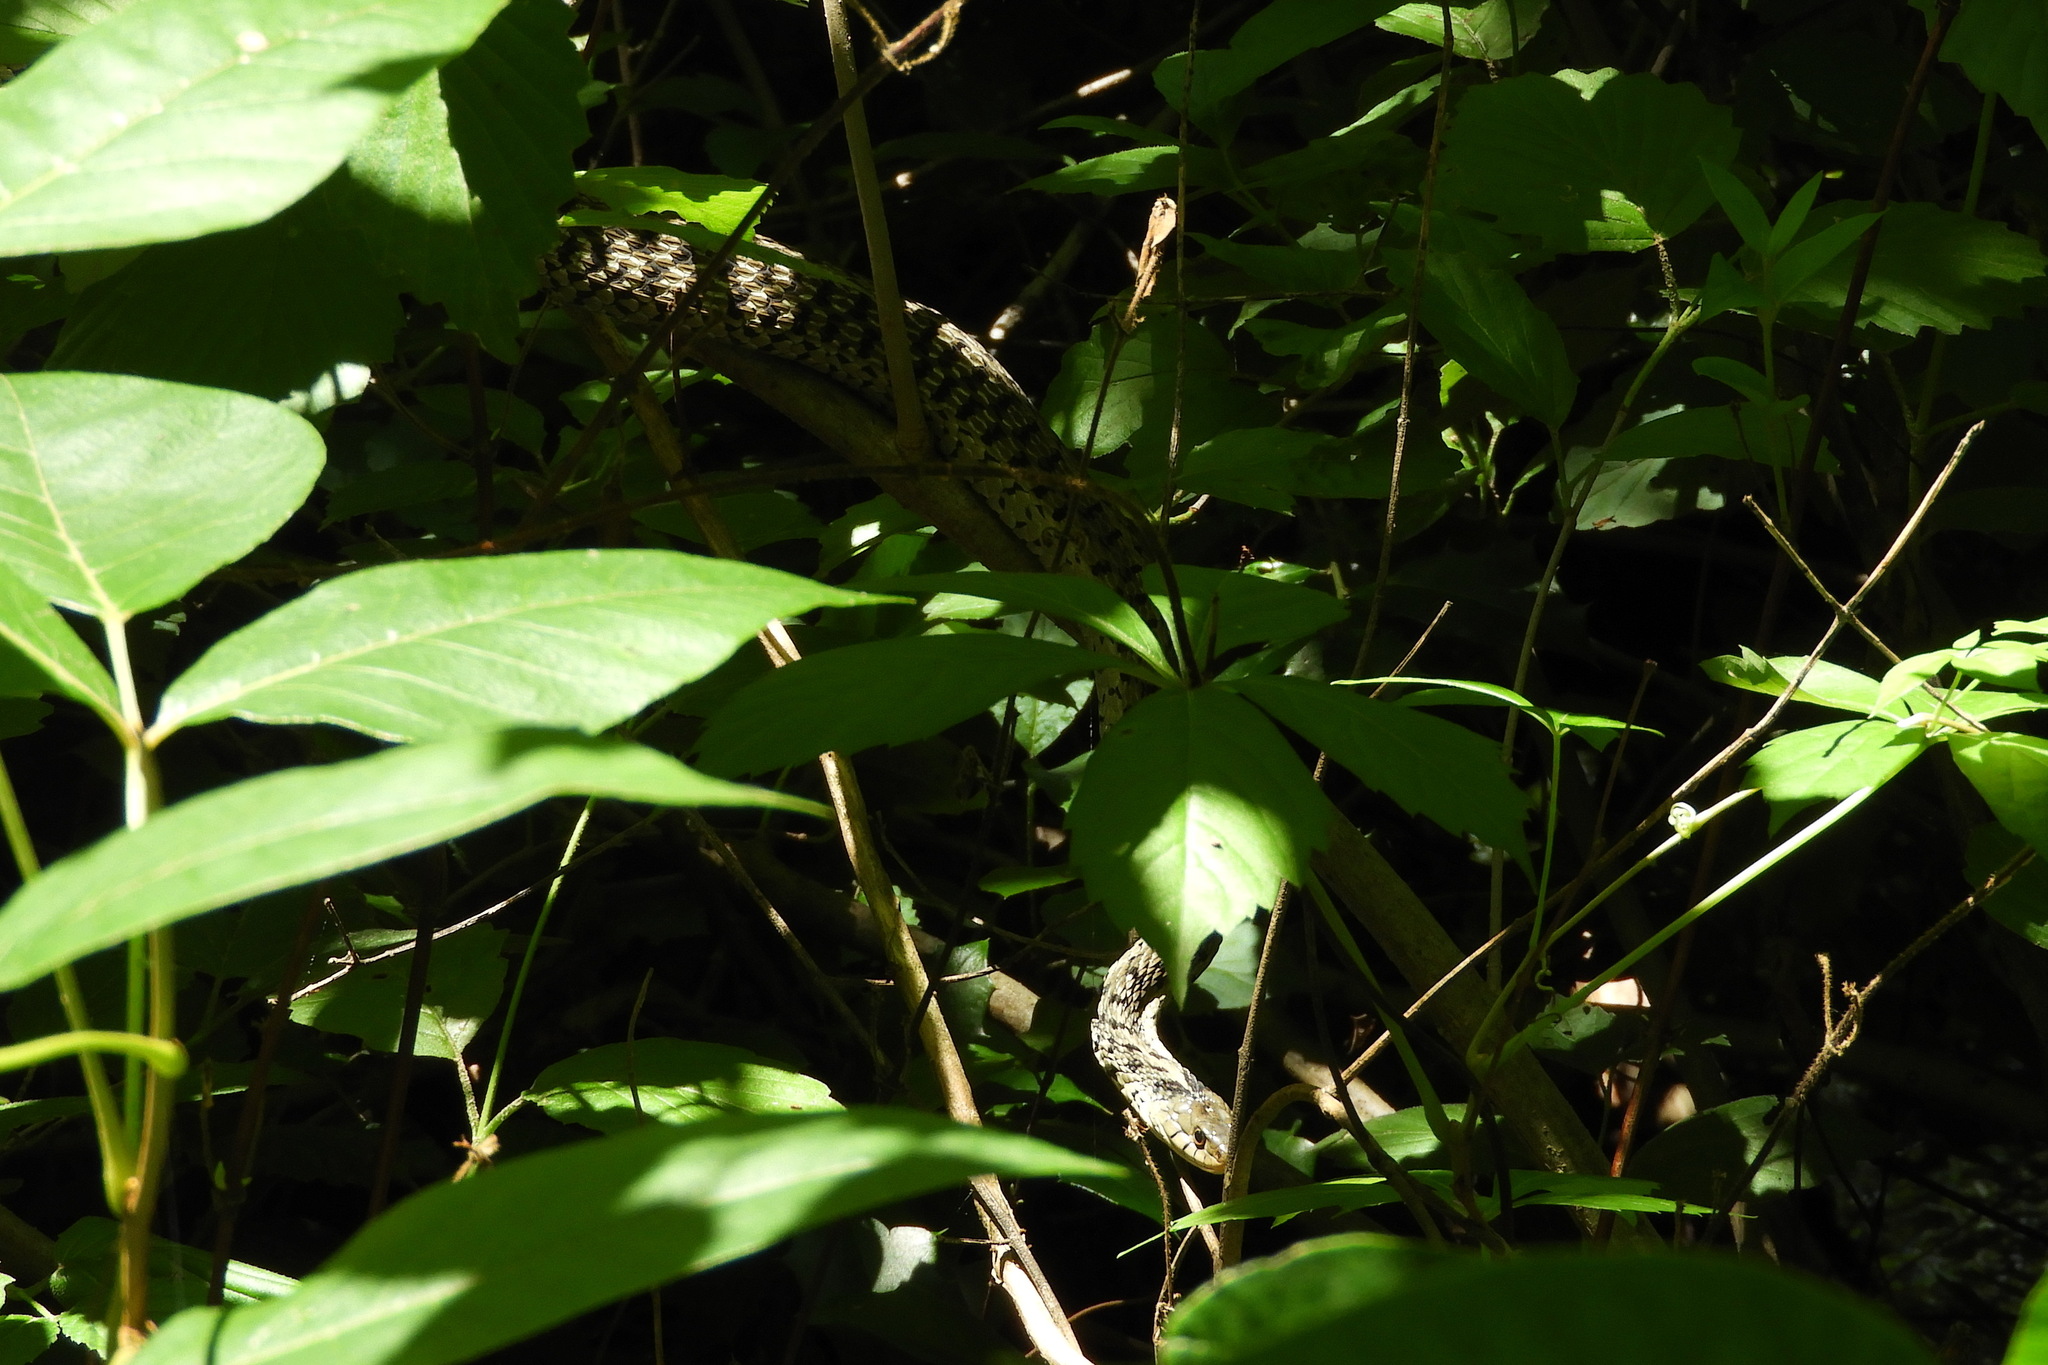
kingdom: Animalia
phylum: Chordata
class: Squamata
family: Colubridae
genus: Thamnophis
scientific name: Thamnophis sirtalis
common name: Common garter snake
